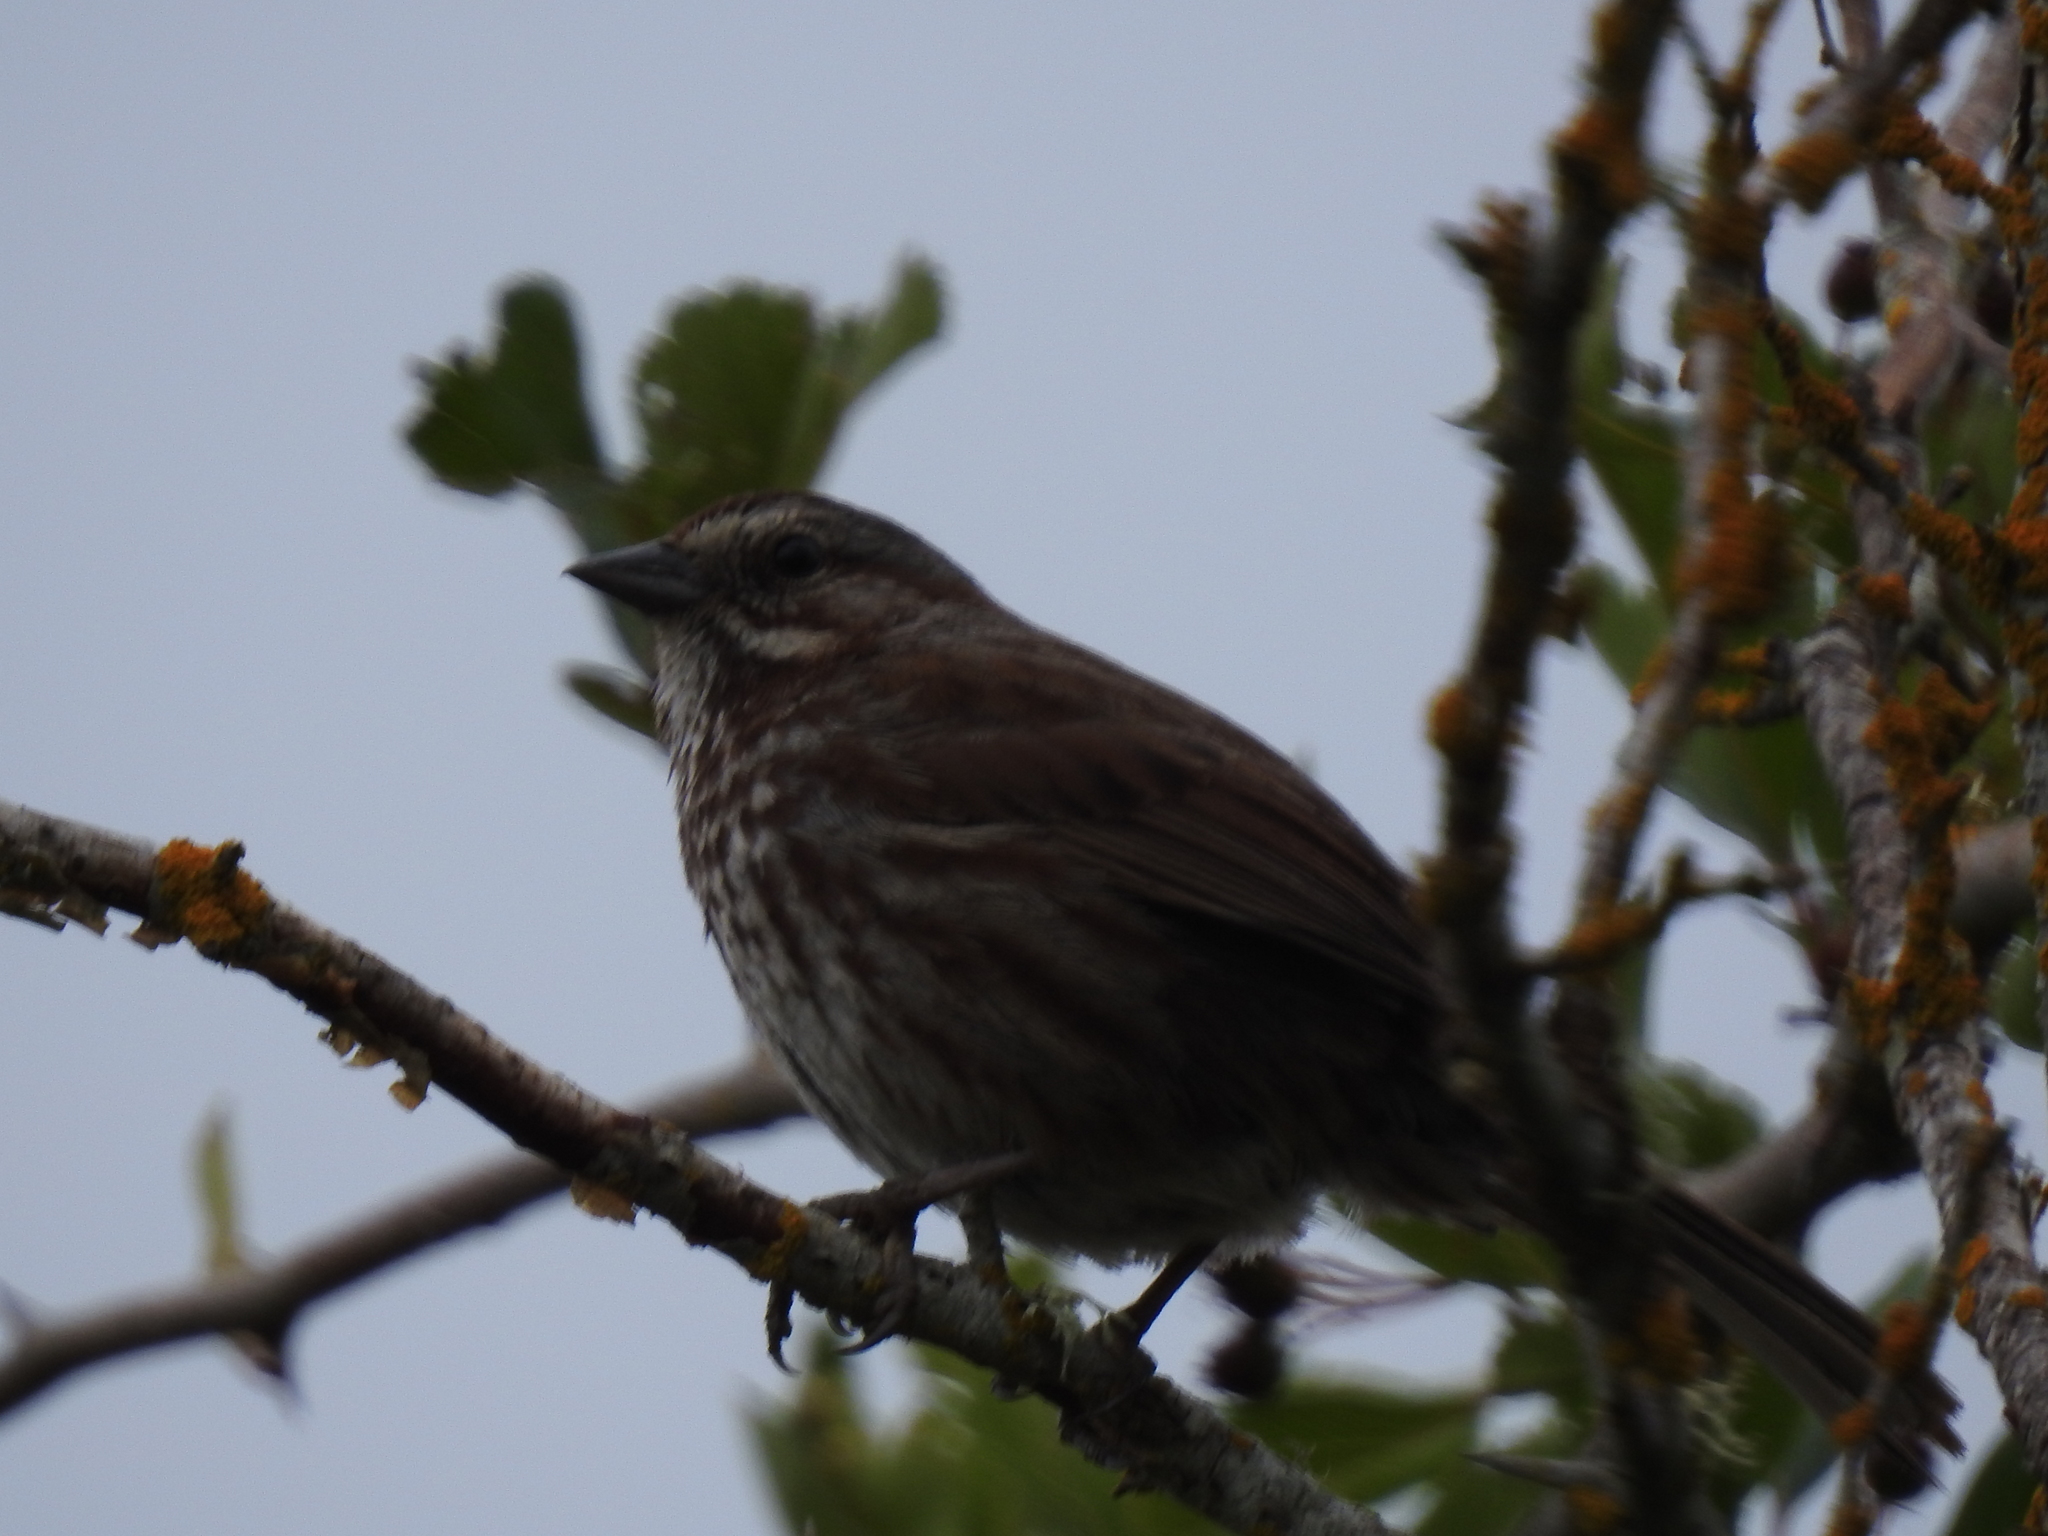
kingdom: Animalia
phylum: Chordata
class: Aves
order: Passeriformes
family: Passerellidae
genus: Melospiza
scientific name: Melospiza melodia
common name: Song sparrow
